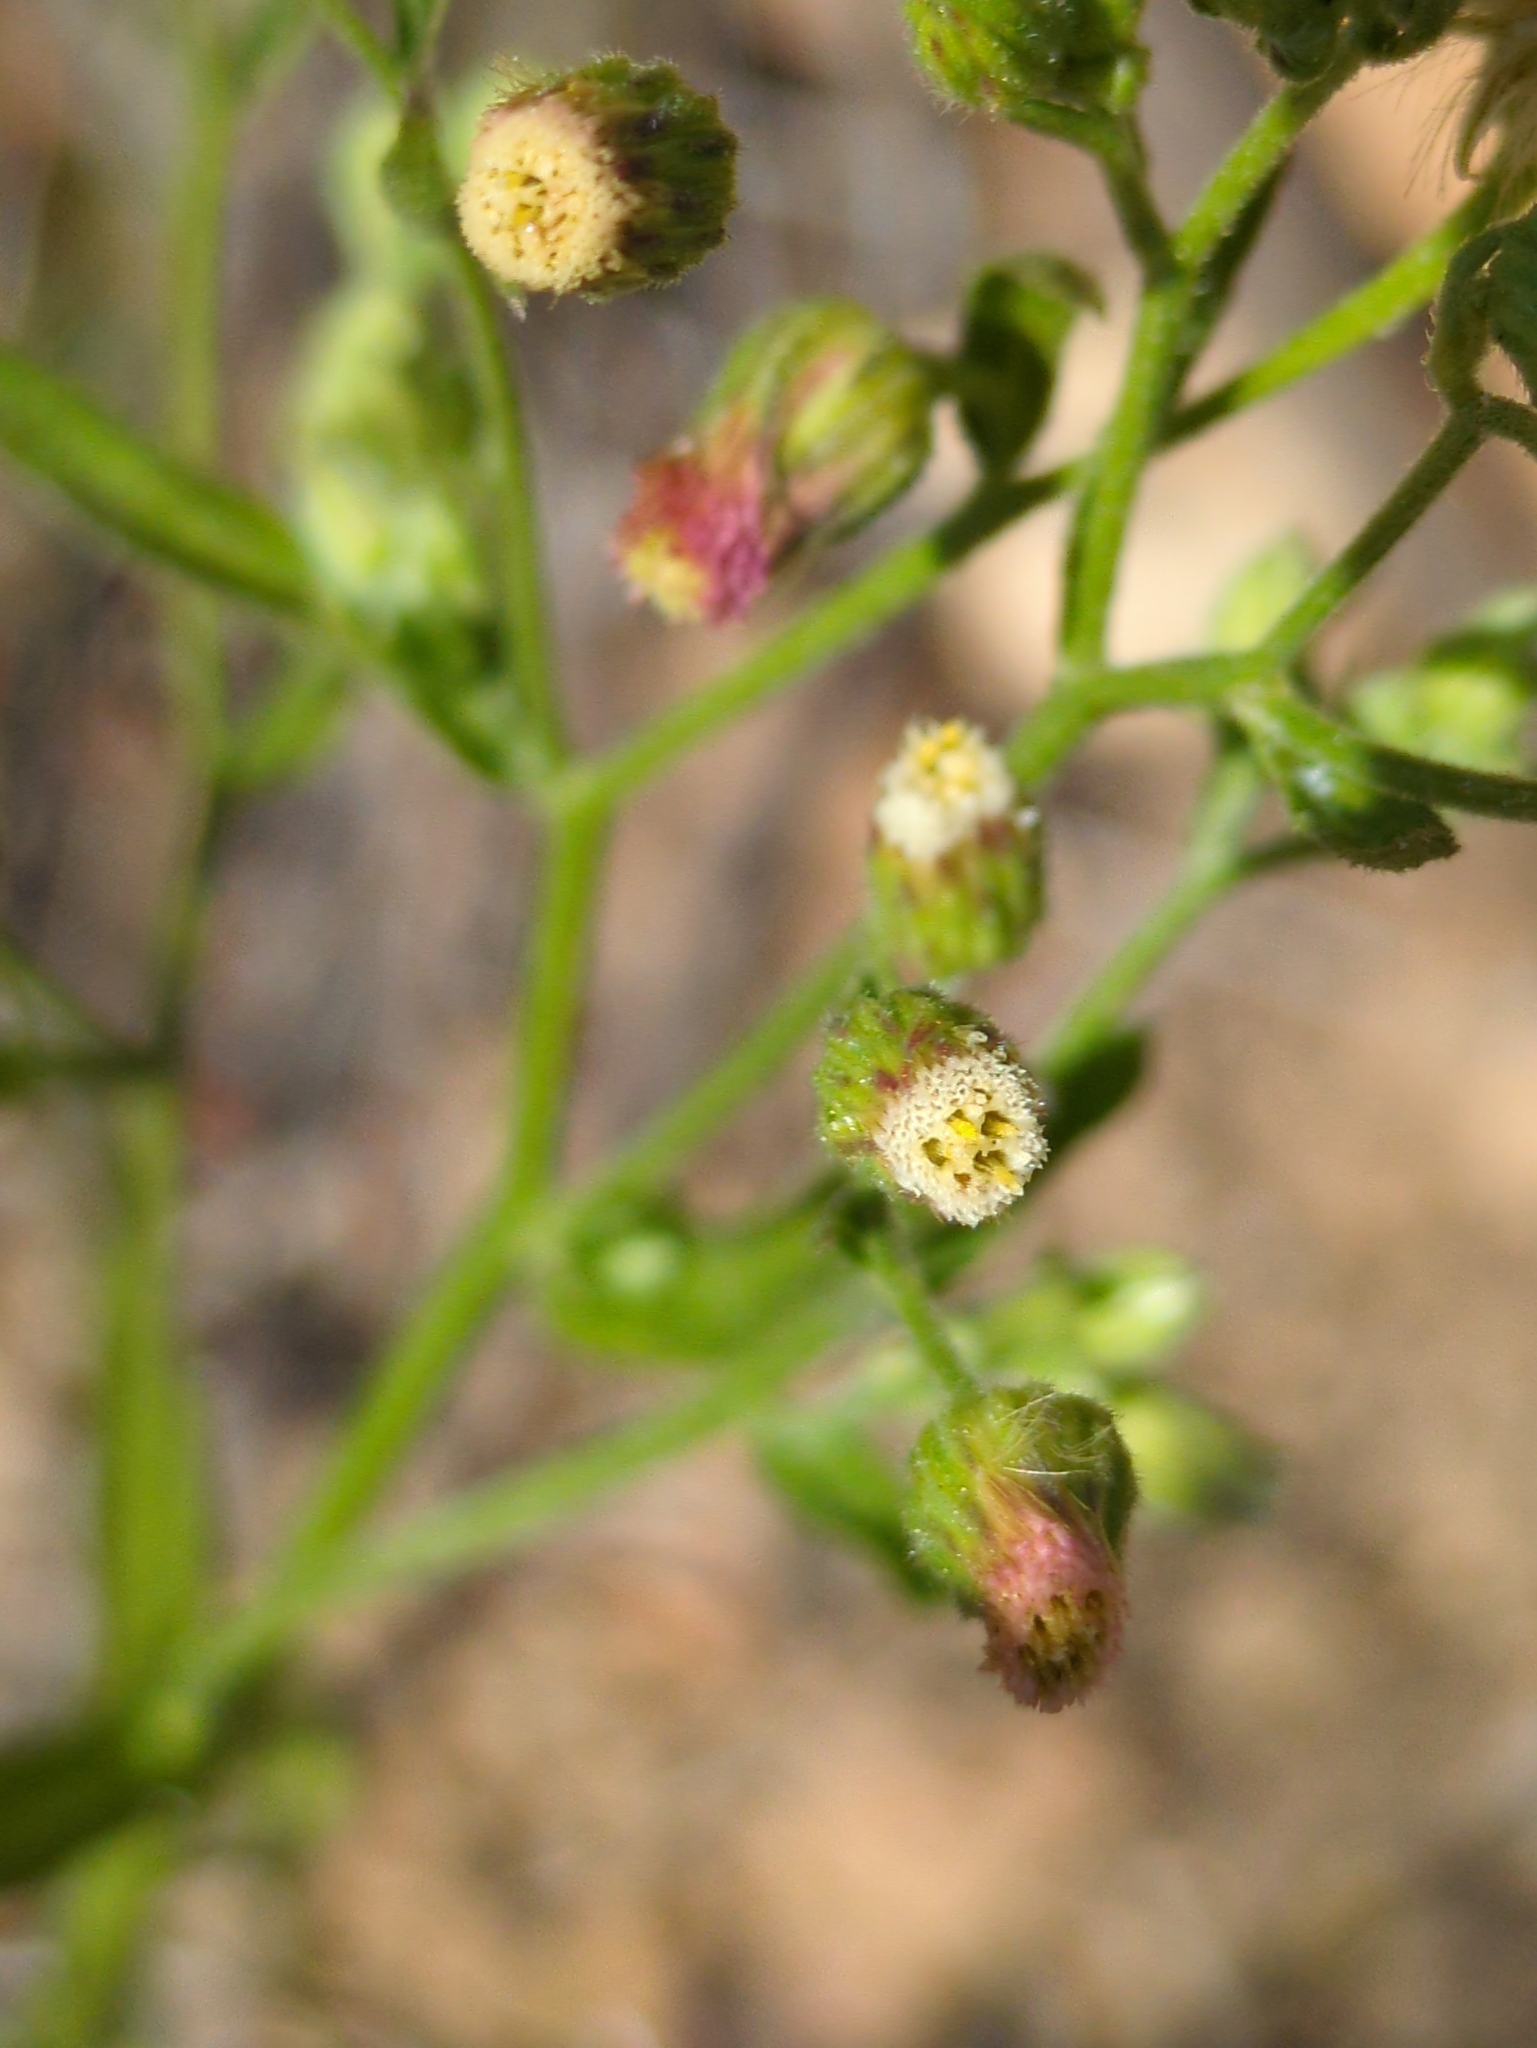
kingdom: Plantae
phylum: Tracheophyta
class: Magnoliopsida
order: Asterales
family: Asteraceae
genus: Erigeron
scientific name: Erigeron sumatrensis
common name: Daisy
